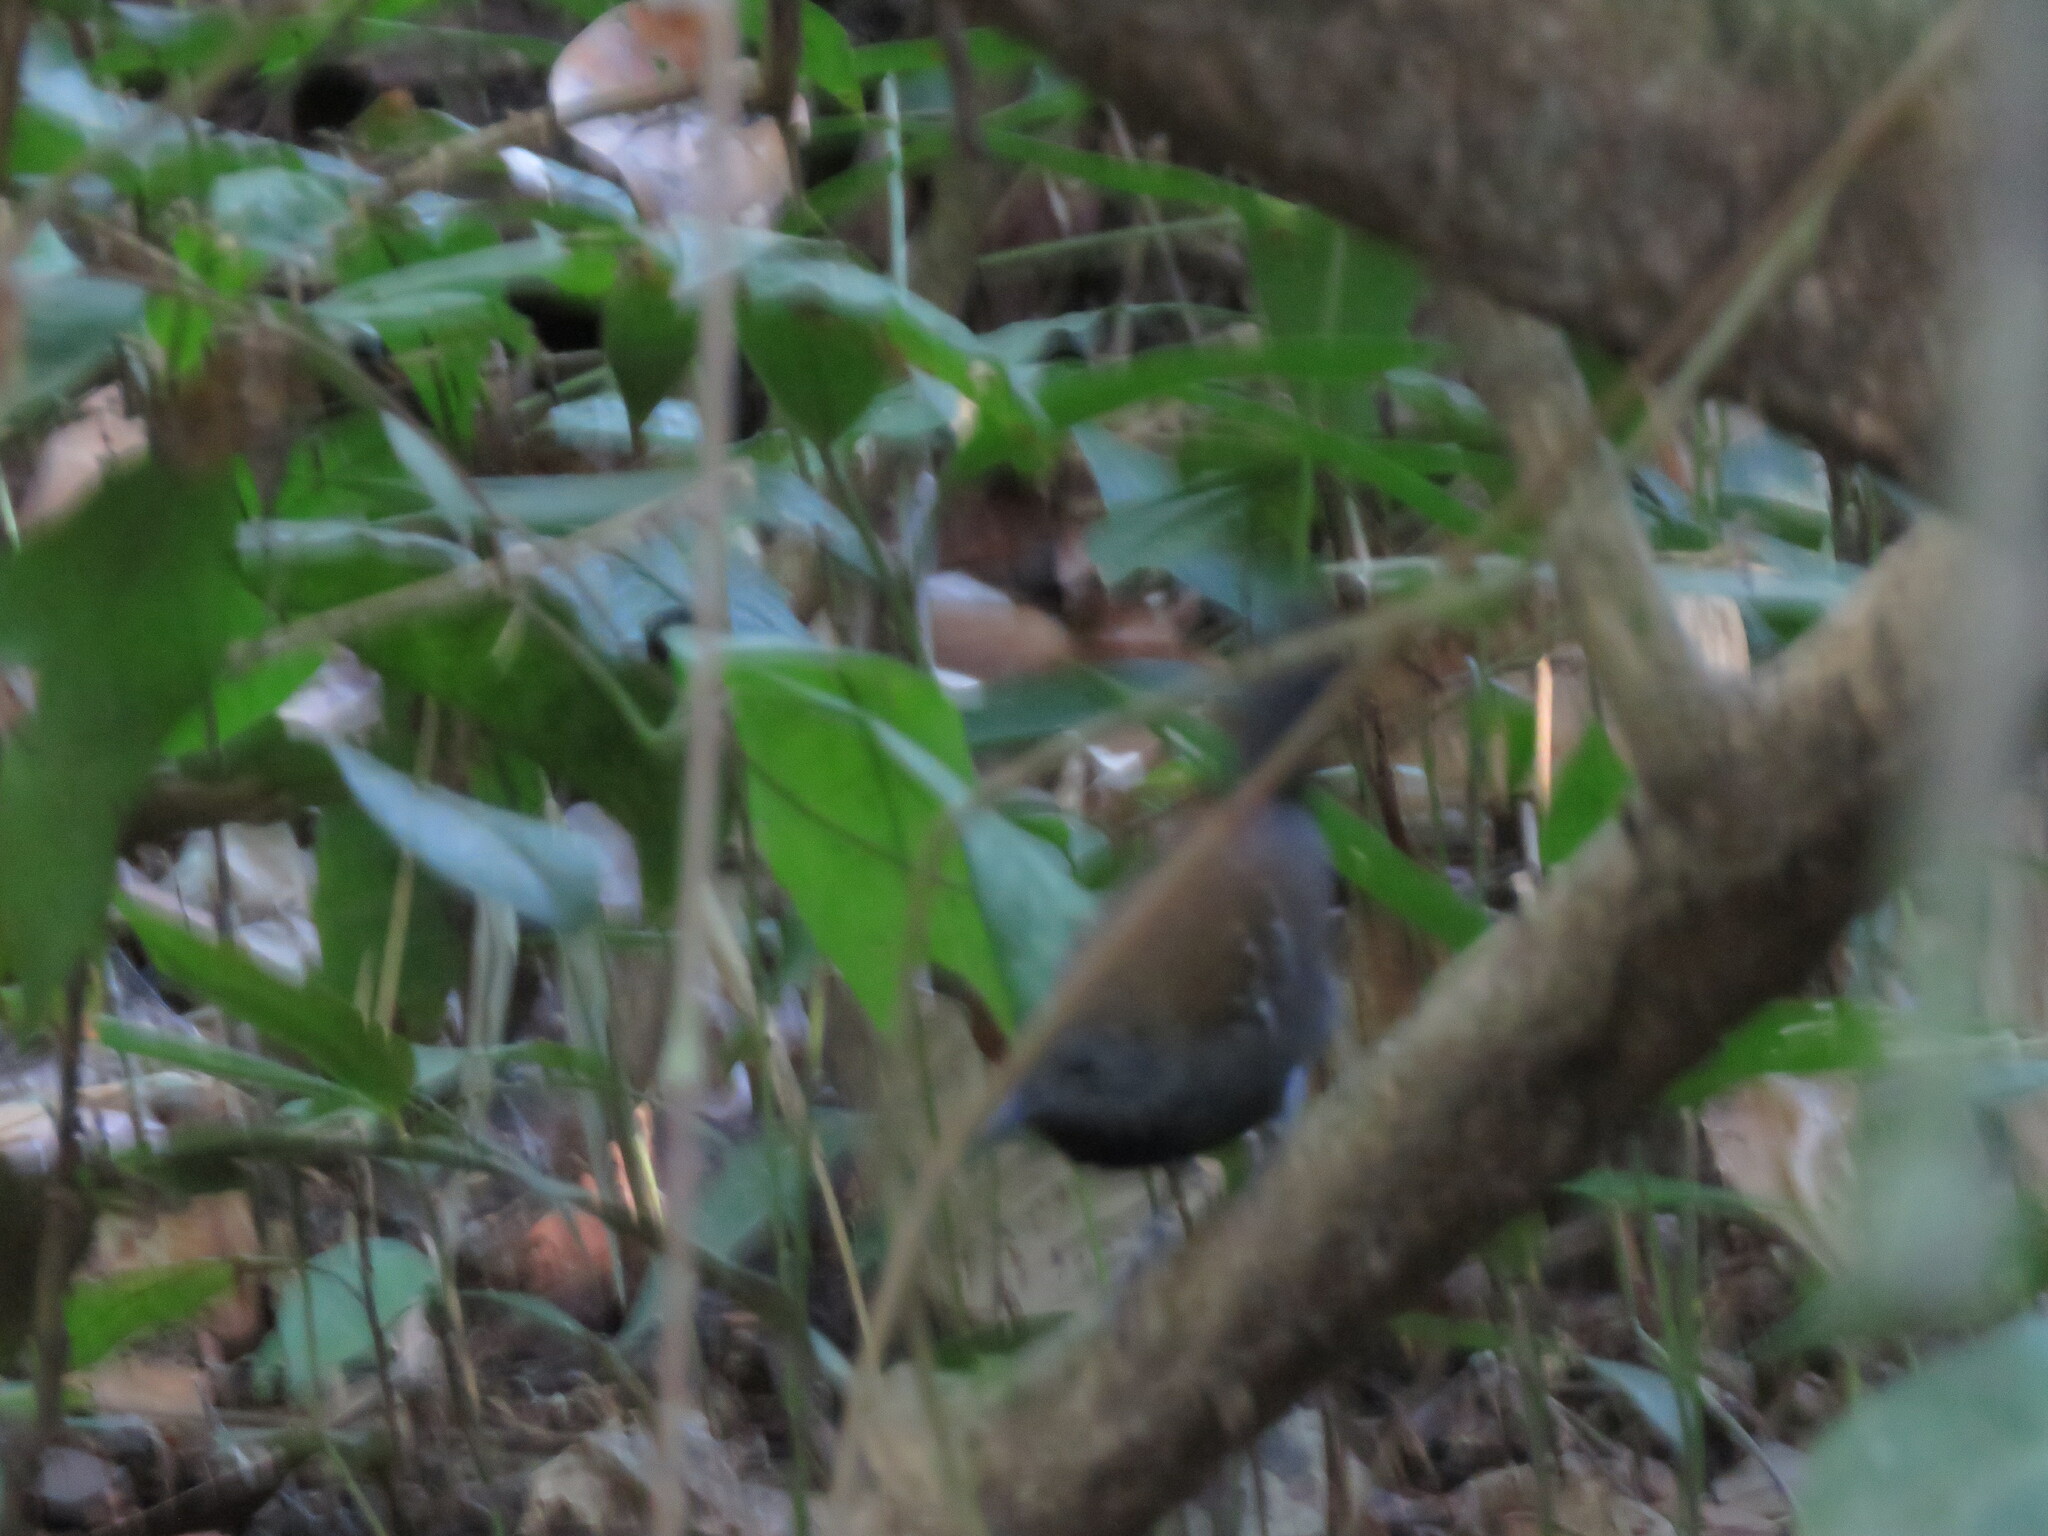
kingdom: Animalia
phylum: Chordata
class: Aves
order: Passeriformes
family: Thamnophilidae
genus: Myrmeciza
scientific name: Myrmeciza atrothorax
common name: Black-throated antbird
